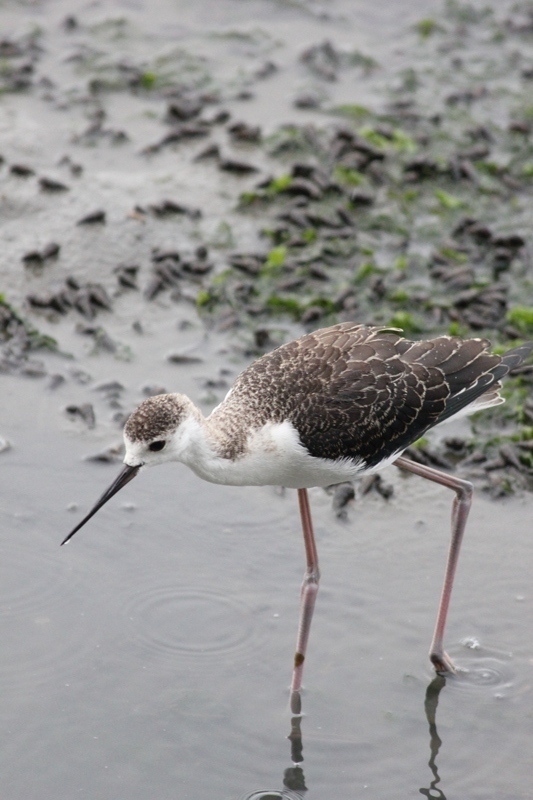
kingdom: Animalia
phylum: Chordata
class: Aves
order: Charadriiformes
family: Recurvirostridae
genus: Himantopus
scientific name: Himantopus himantopus
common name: Black-winged stilt
